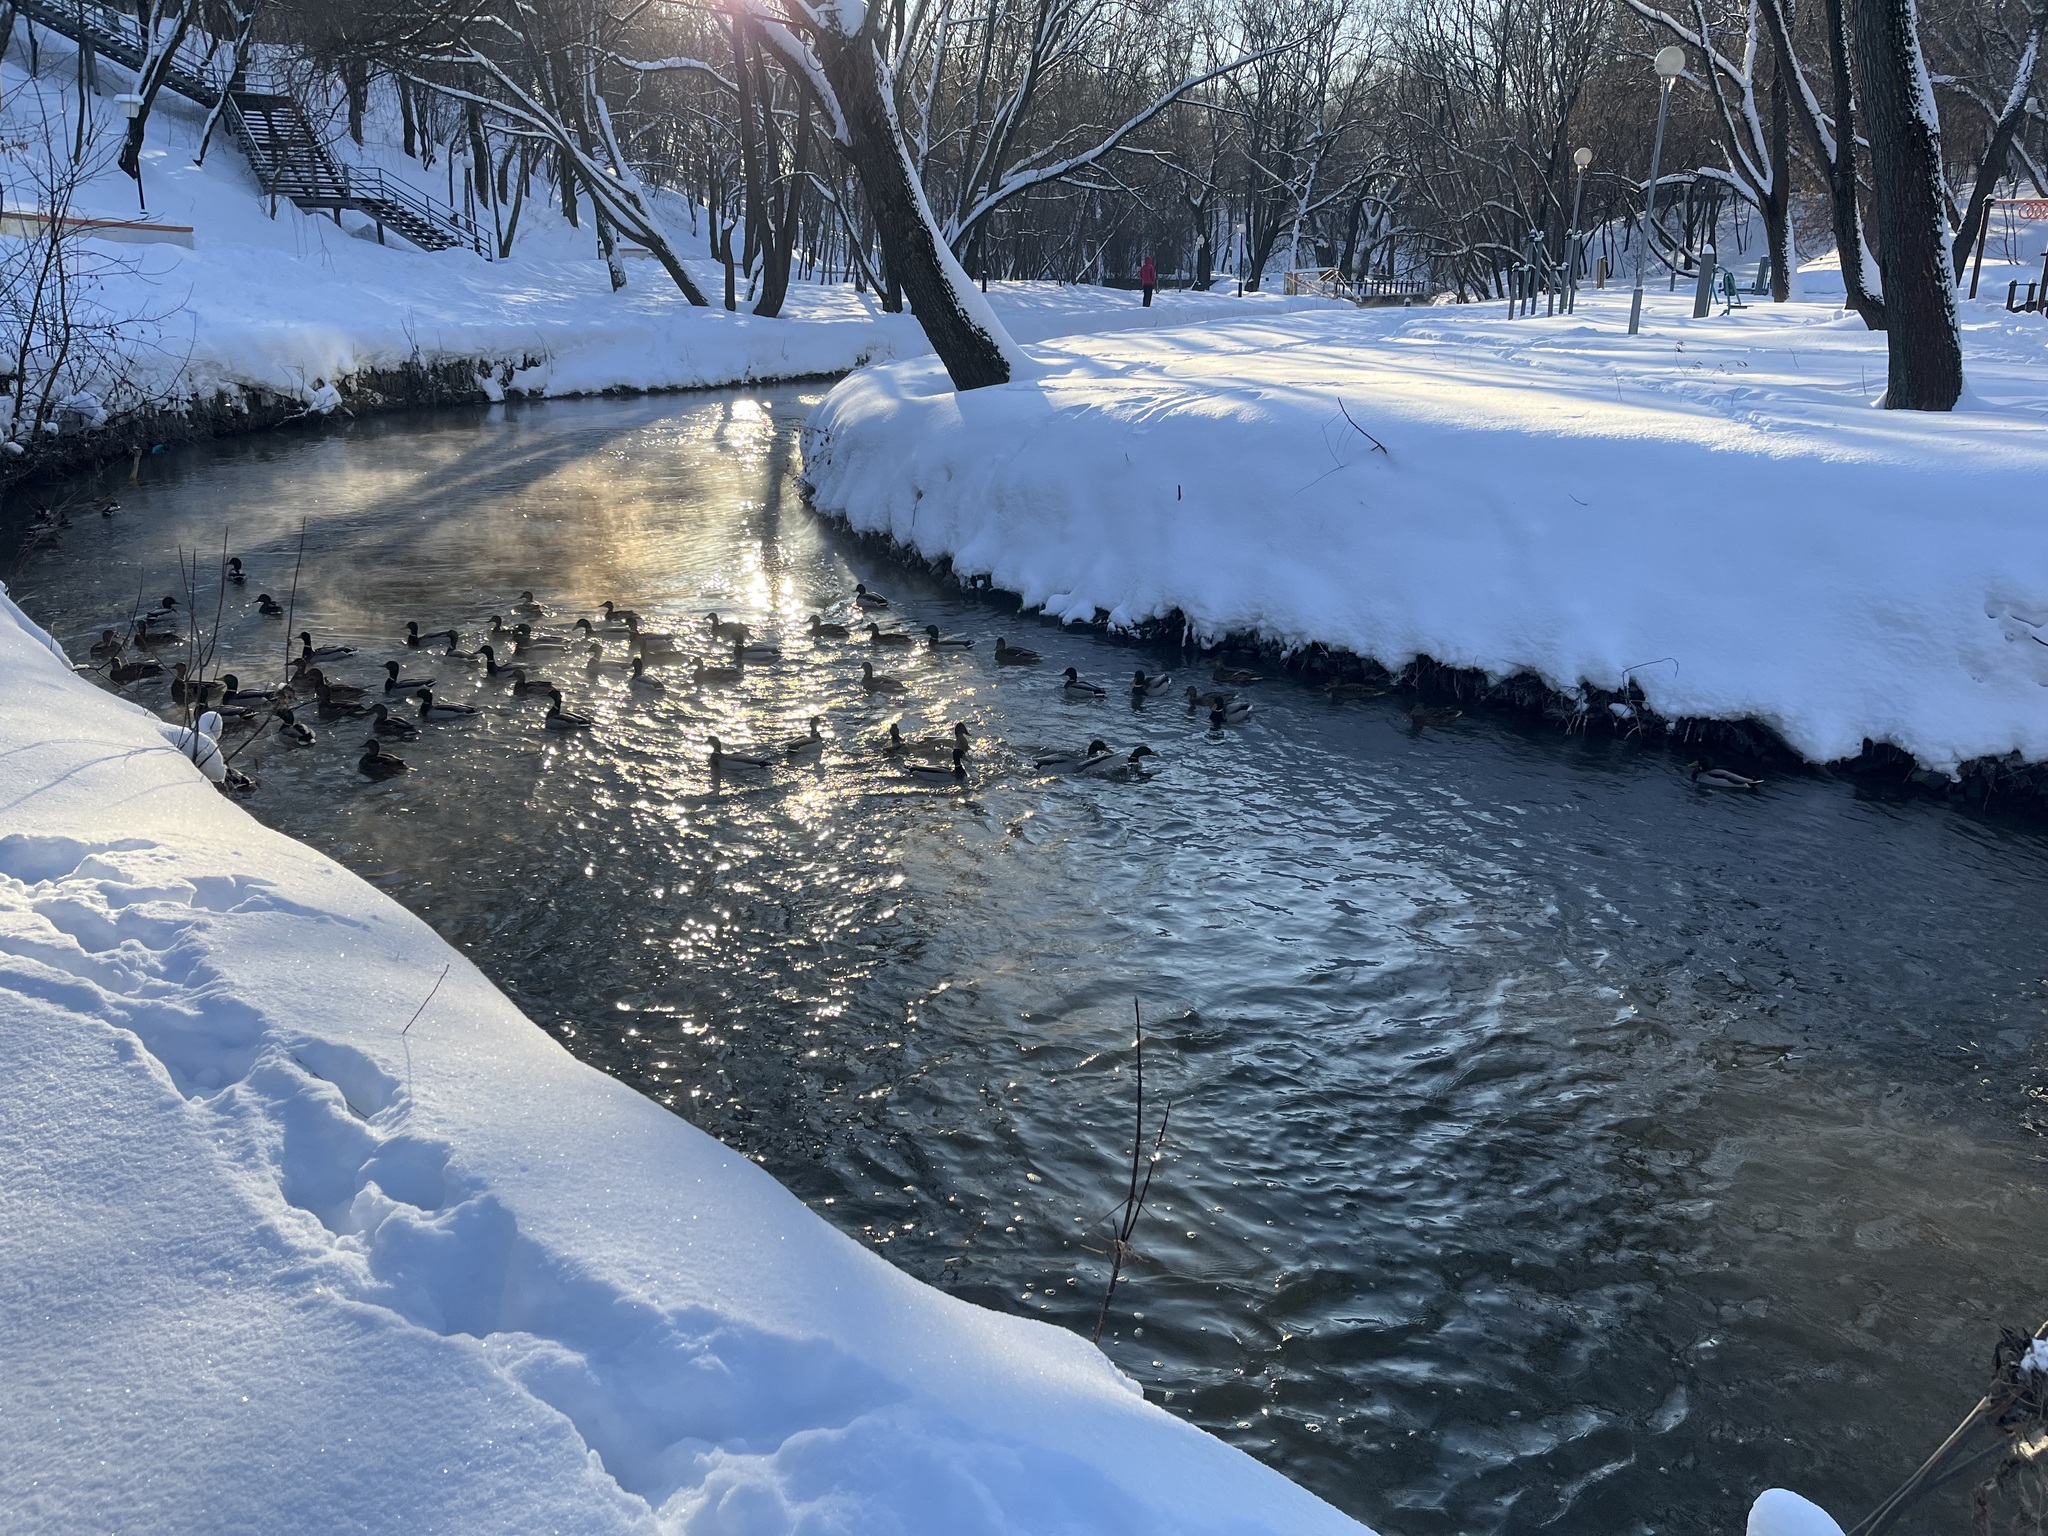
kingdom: Animalia
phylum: Chordata
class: Aves
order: Anseriformes
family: Anatidae
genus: Anas
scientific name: Anas platyrhynchos
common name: Mallard
